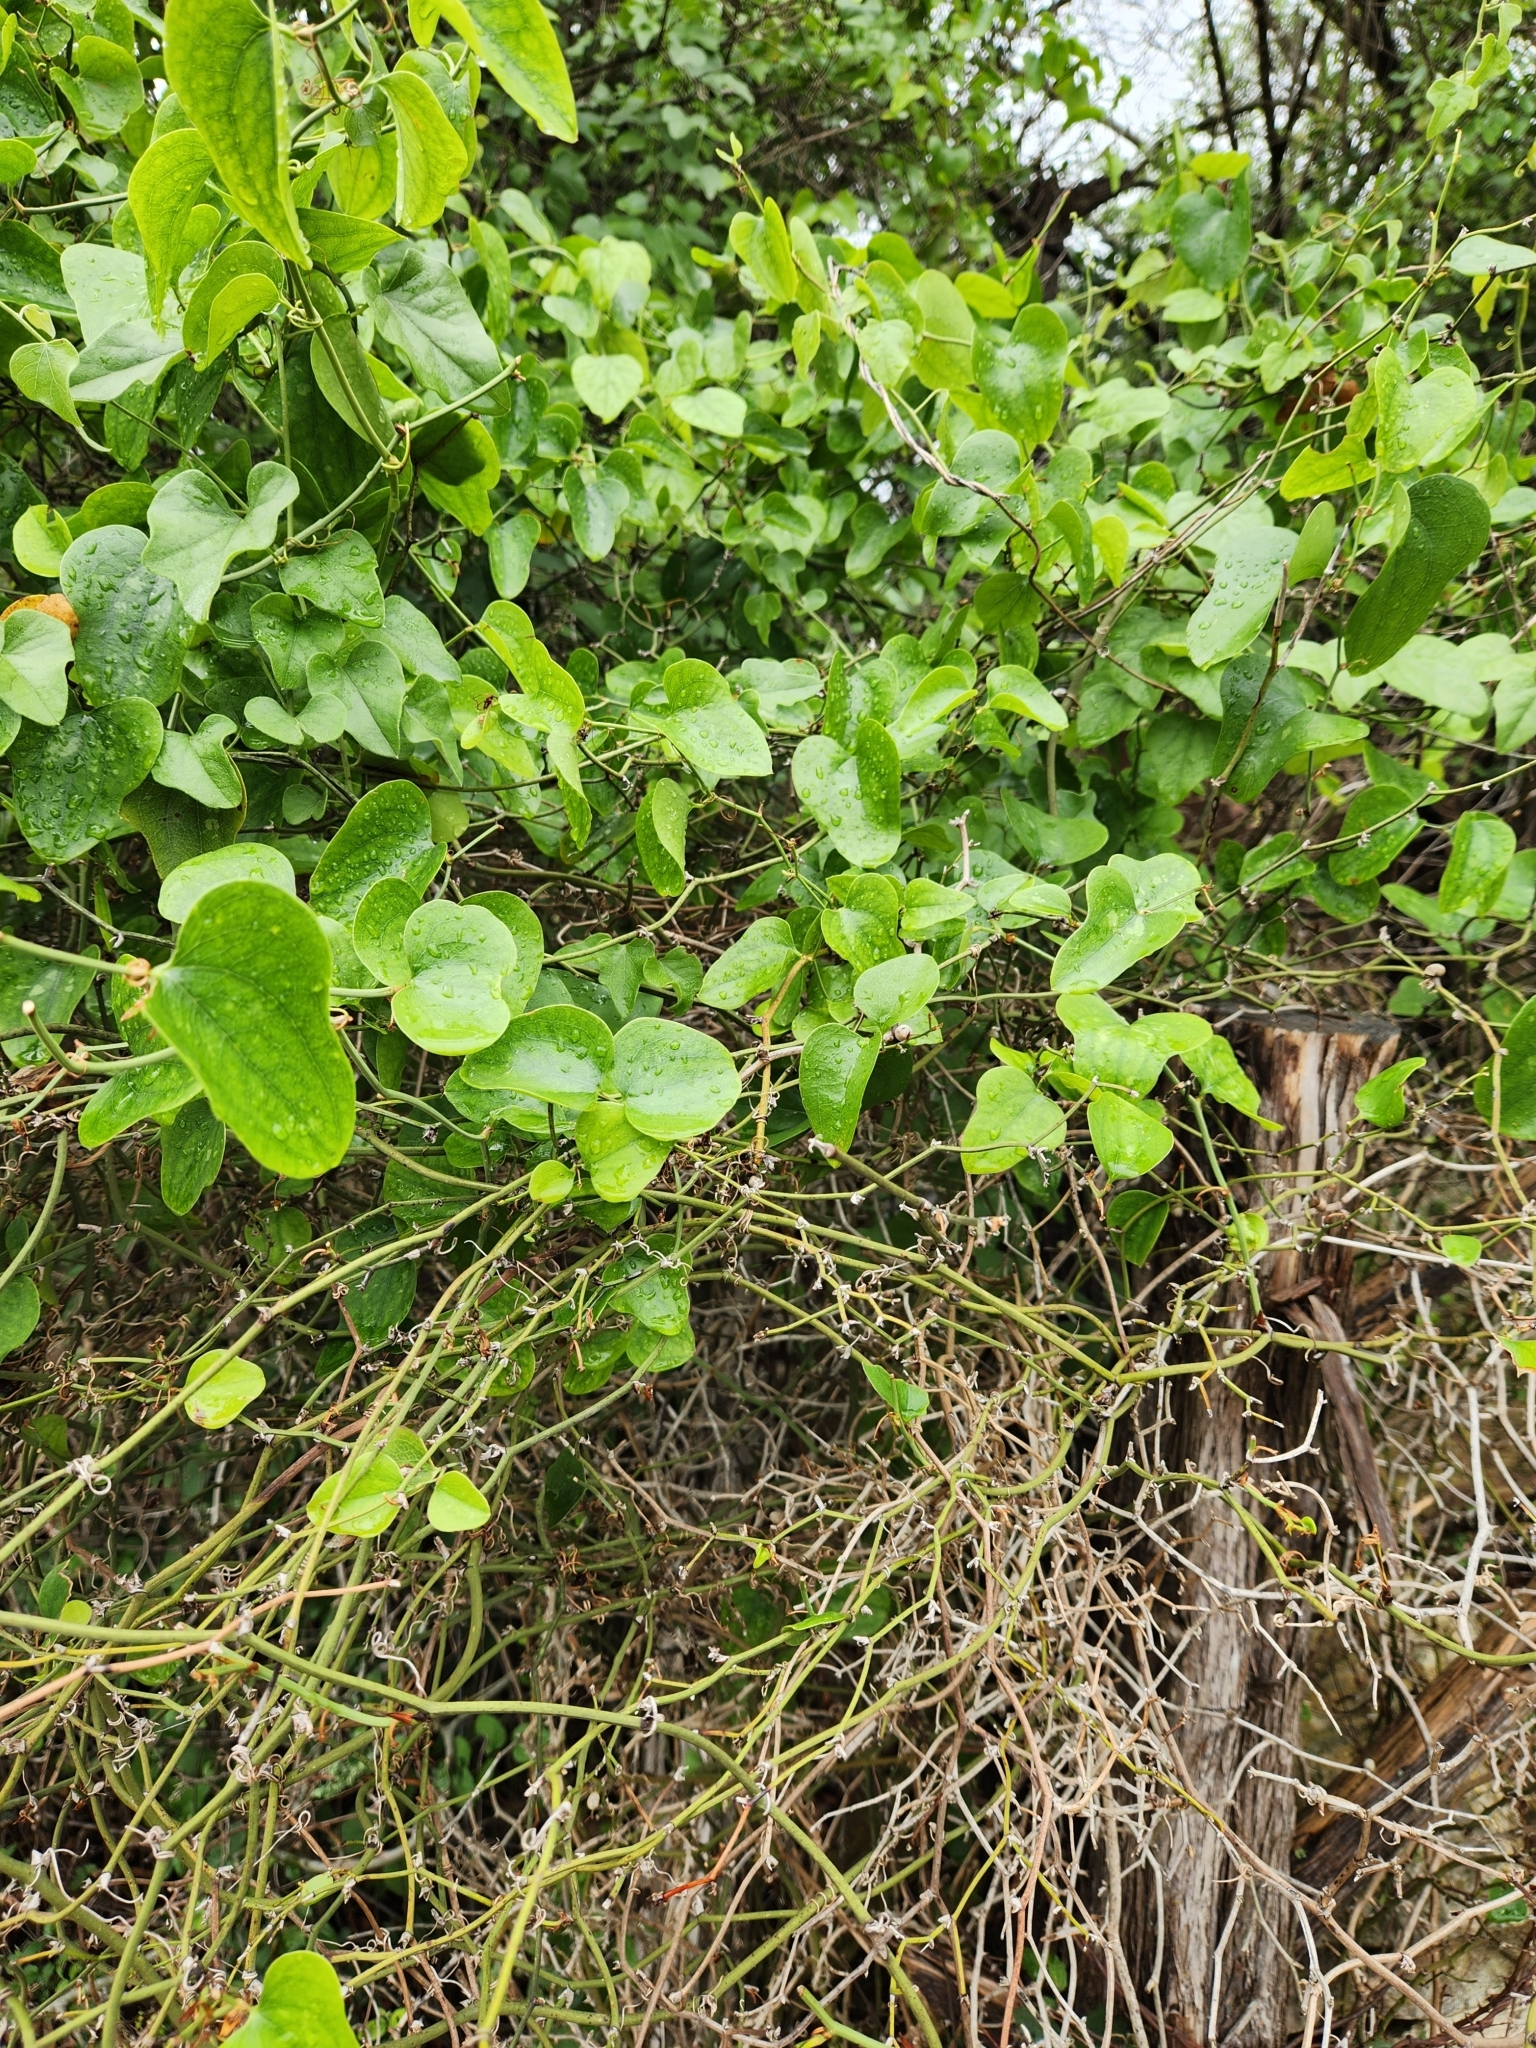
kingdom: Plantae
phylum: Tracheophyta
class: Liliopsida
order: Liliales
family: Smilacaceae
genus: Smilax
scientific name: Smilax bona-nox
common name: Catbrier
